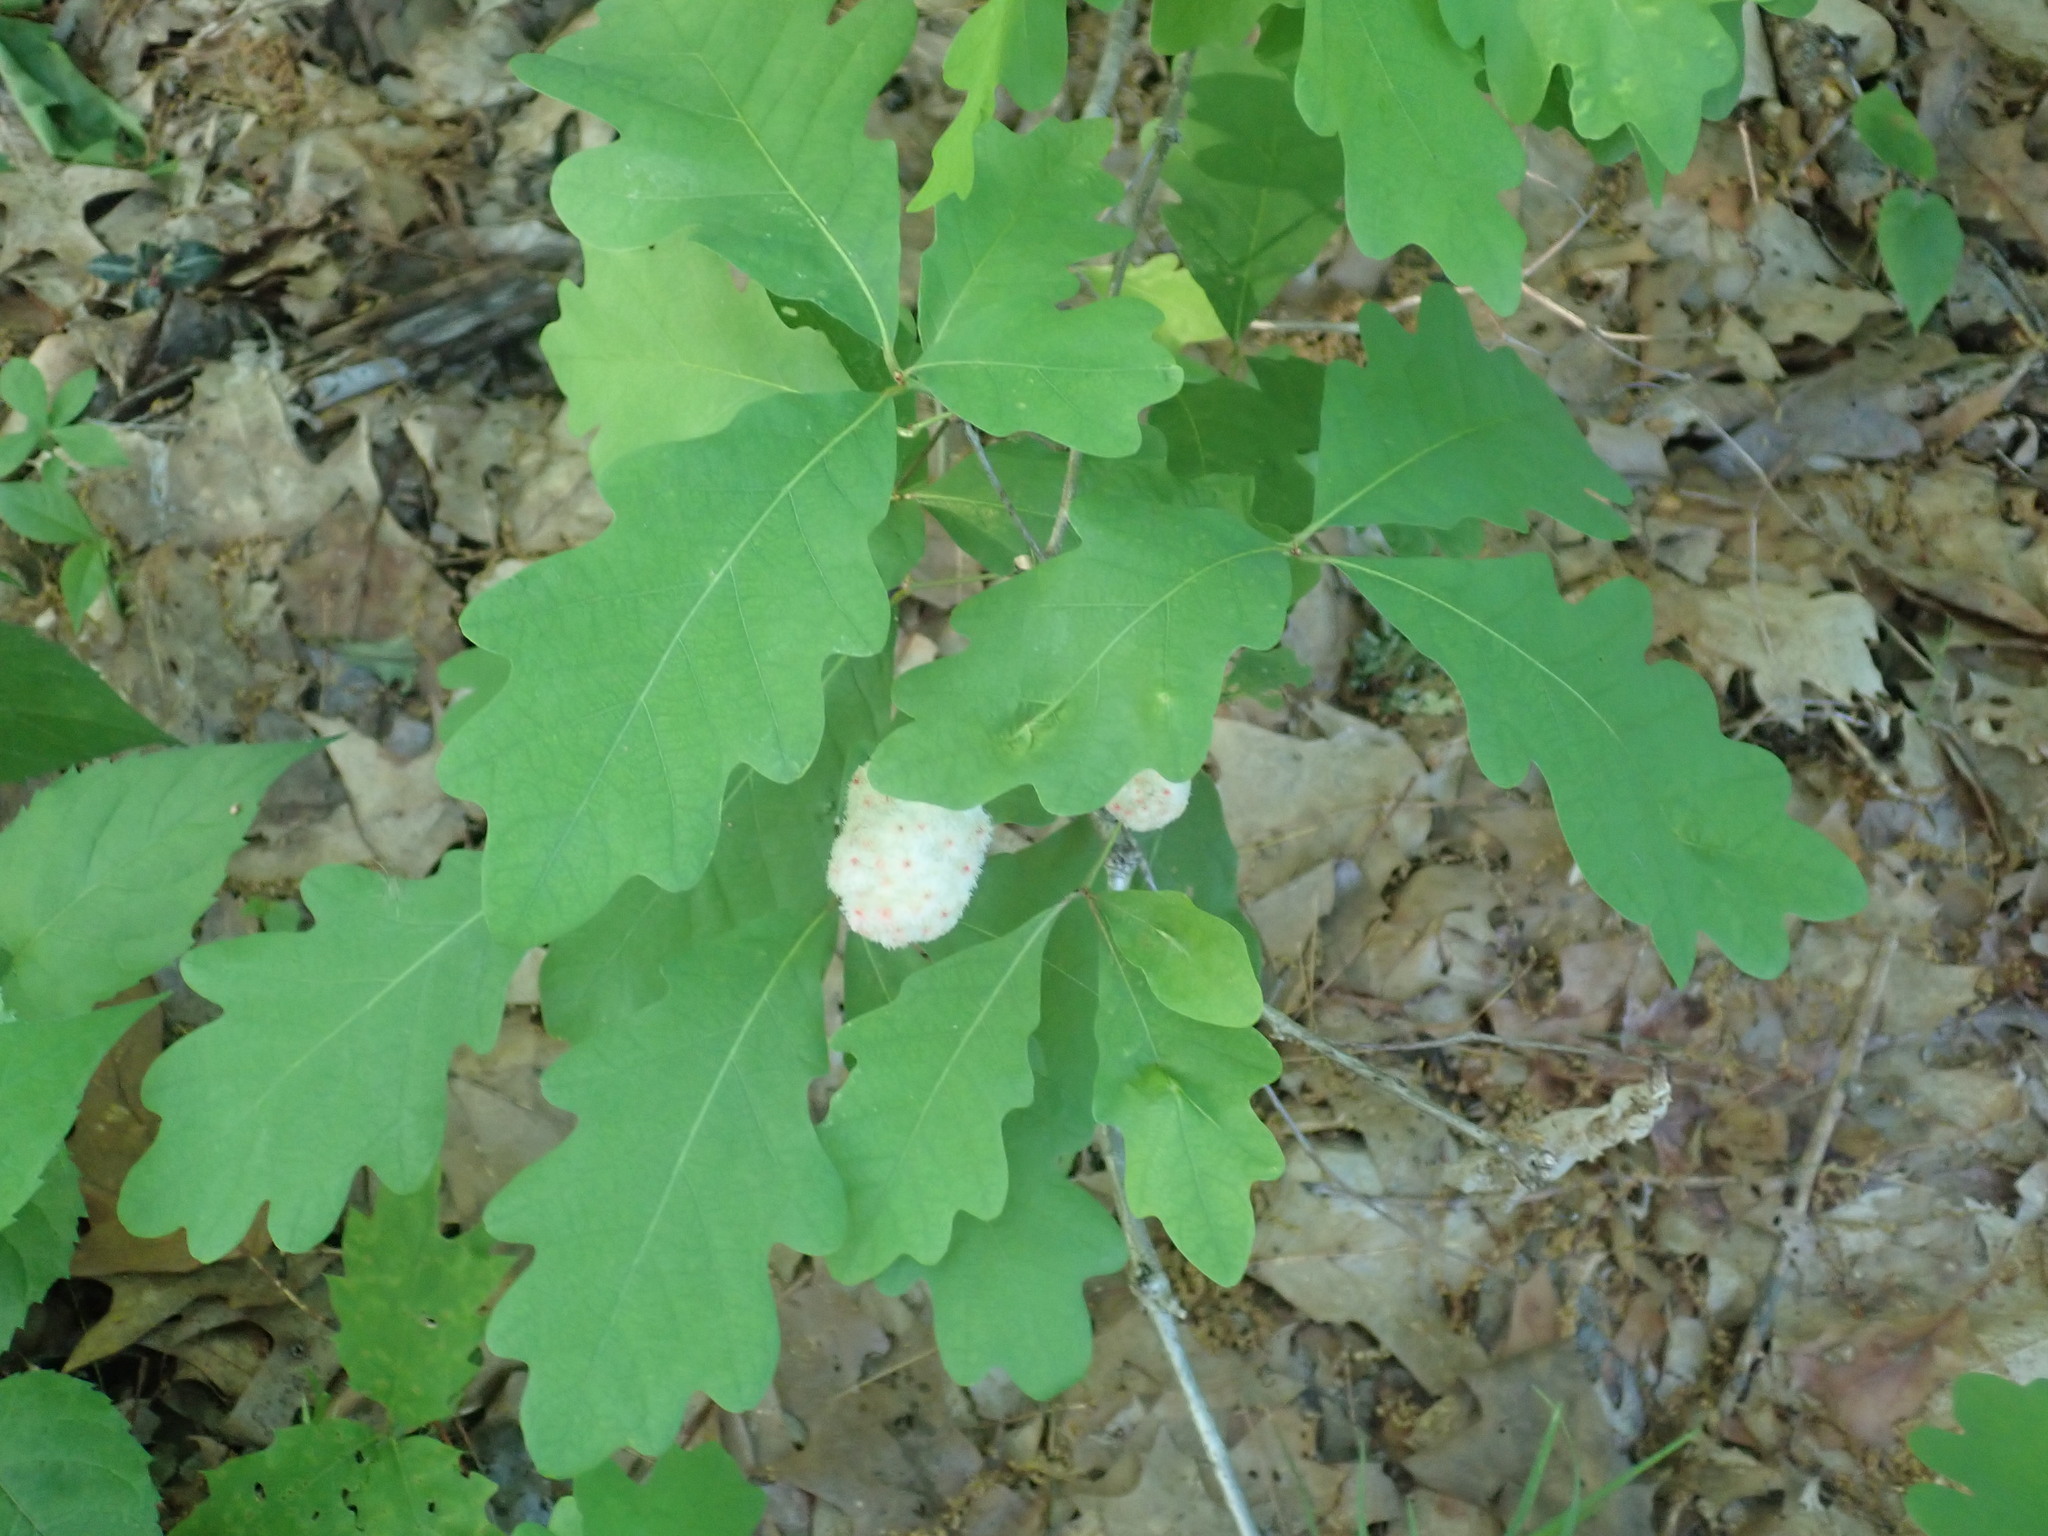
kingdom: Animalia
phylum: Arthropoda
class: Insecta
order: Hymenoptera
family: Cynipidae
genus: Callirhytis
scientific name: Callirhytis
